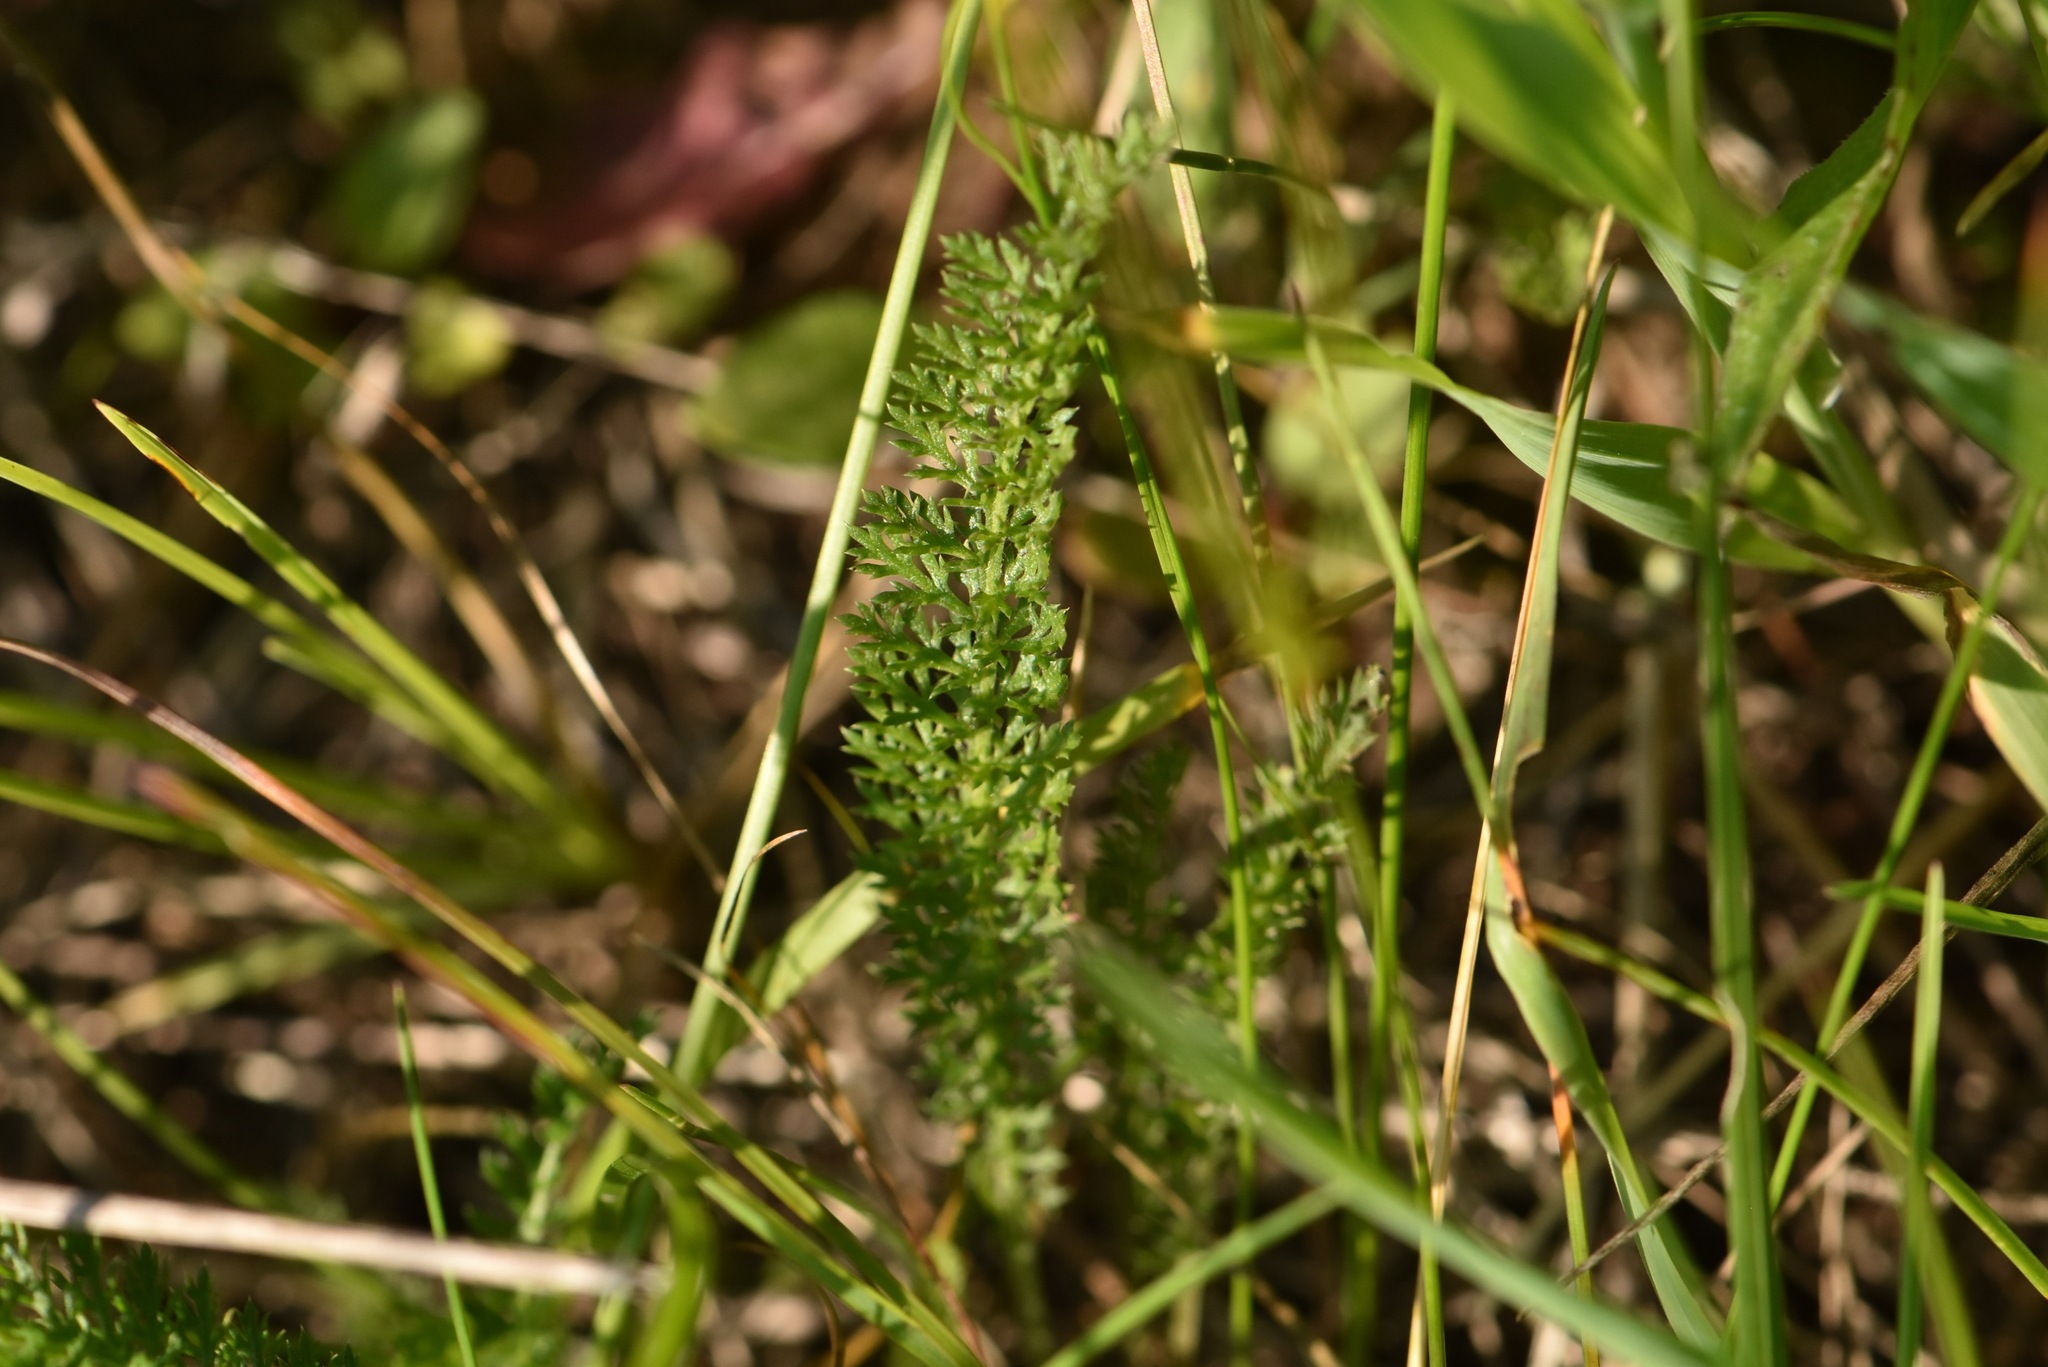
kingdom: Plantae
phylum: Tracheophyta
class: Magnoliopsida
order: Asterales
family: Asteraceae
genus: Achillea
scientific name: Achillea millefolium
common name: Yarrow
